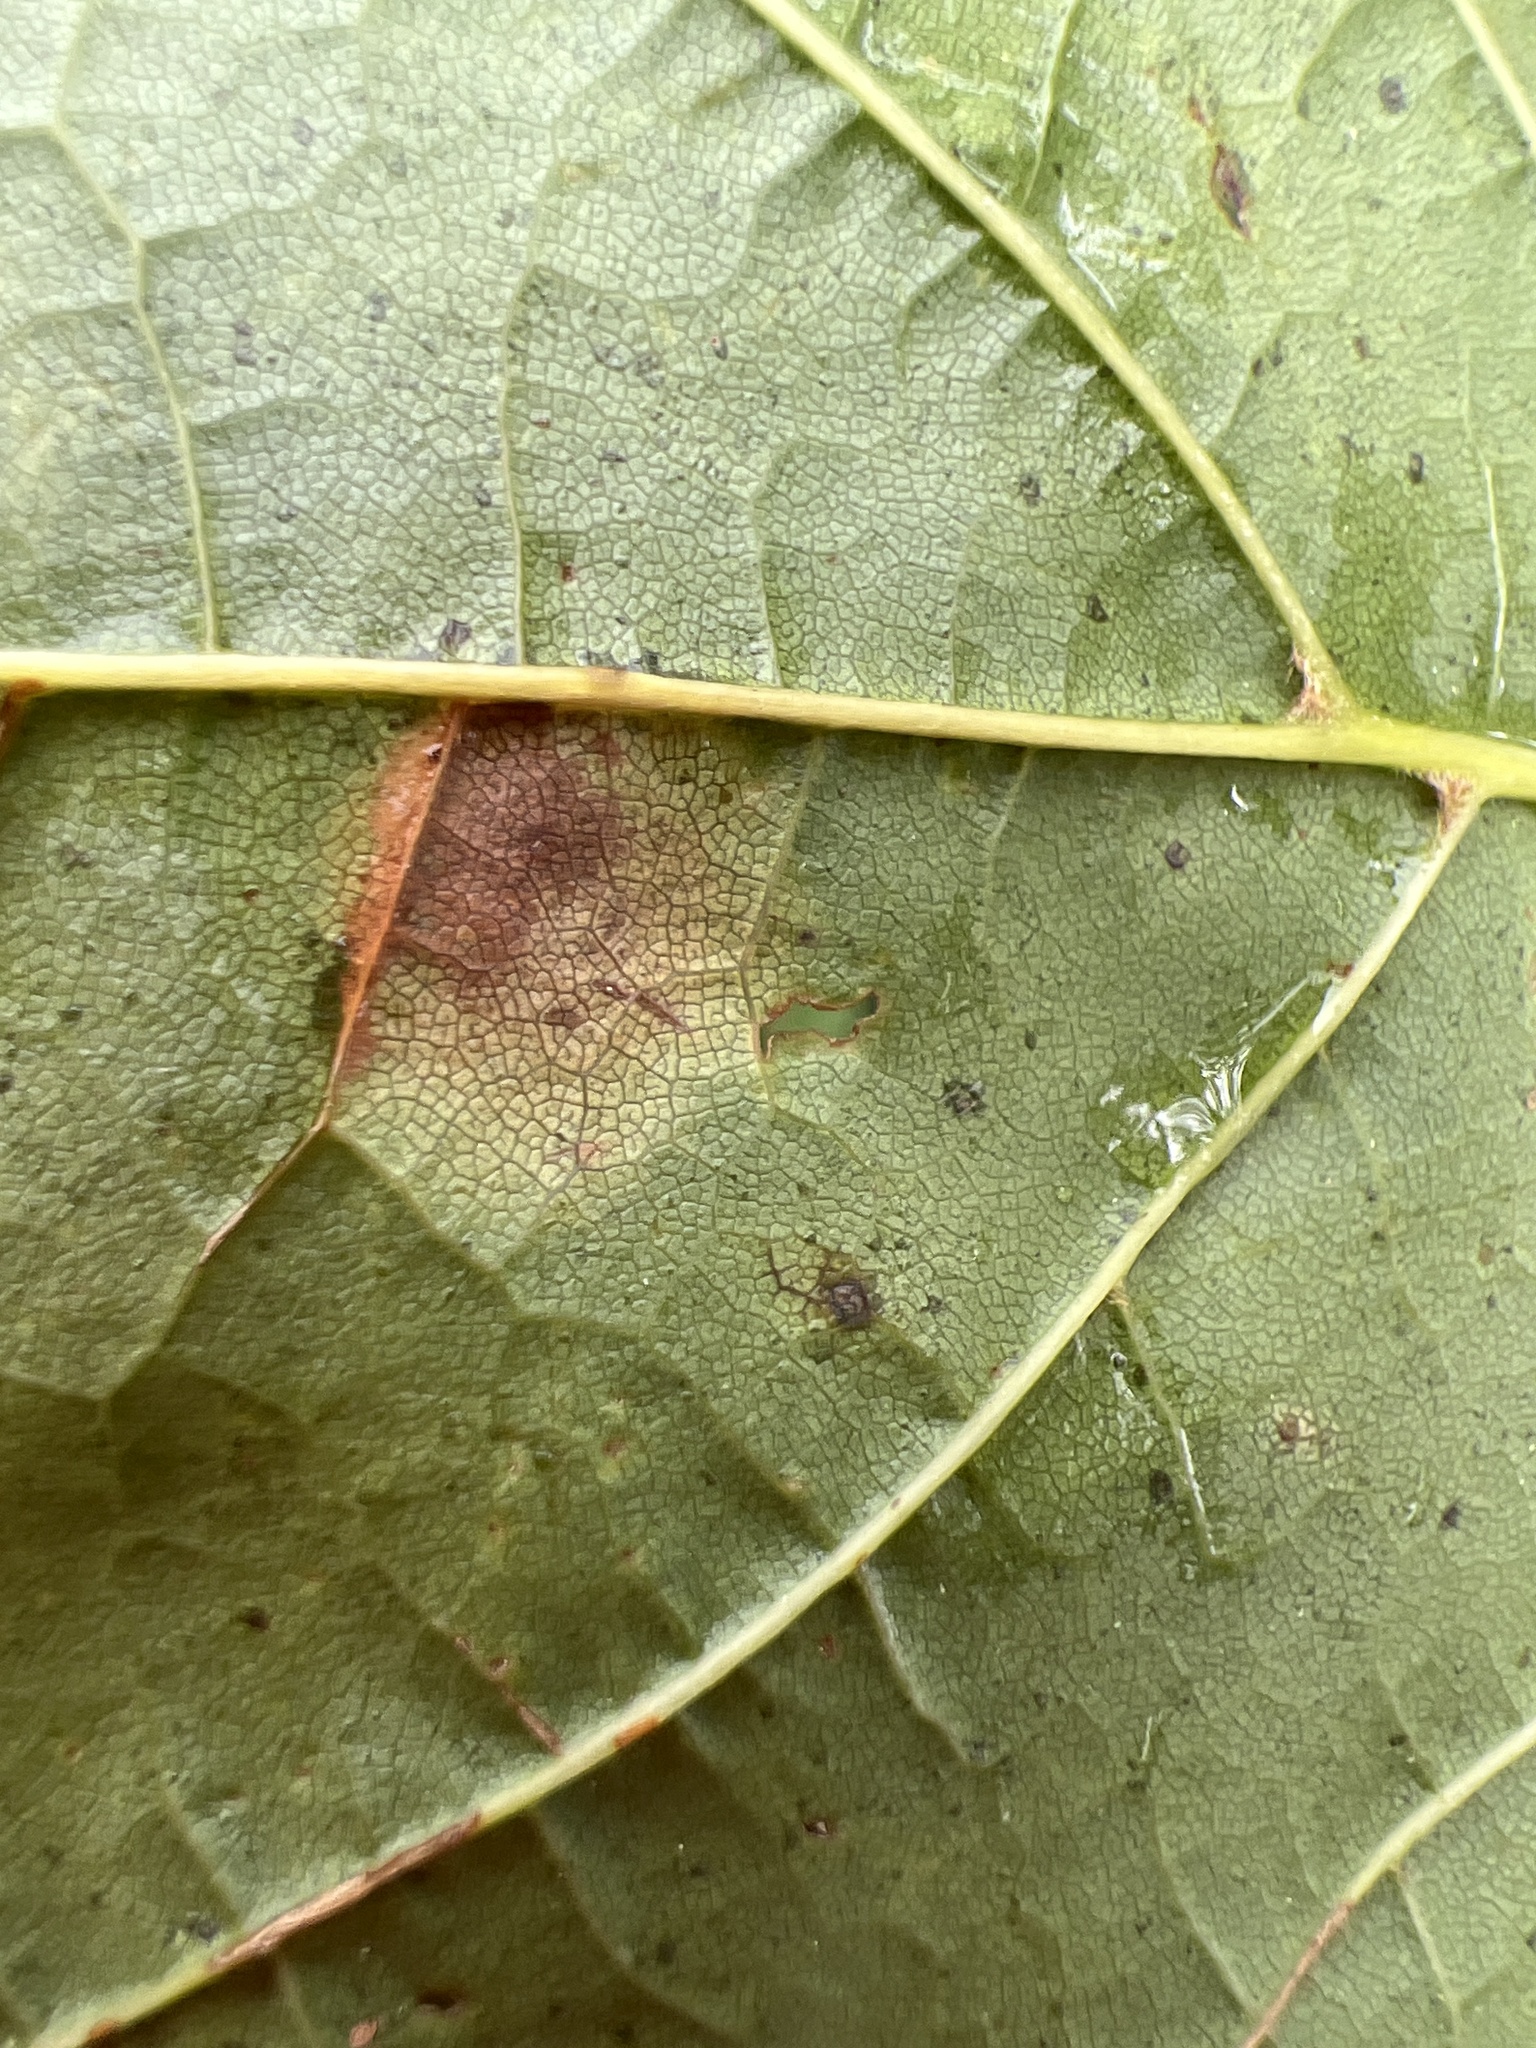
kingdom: Fungi
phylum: Ascomycota
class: Leotiomycetes
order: Rhytismatales
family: Rhytismataceae
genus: Rhytisma
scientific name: Rhytisma acerinum
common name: European tar spot
